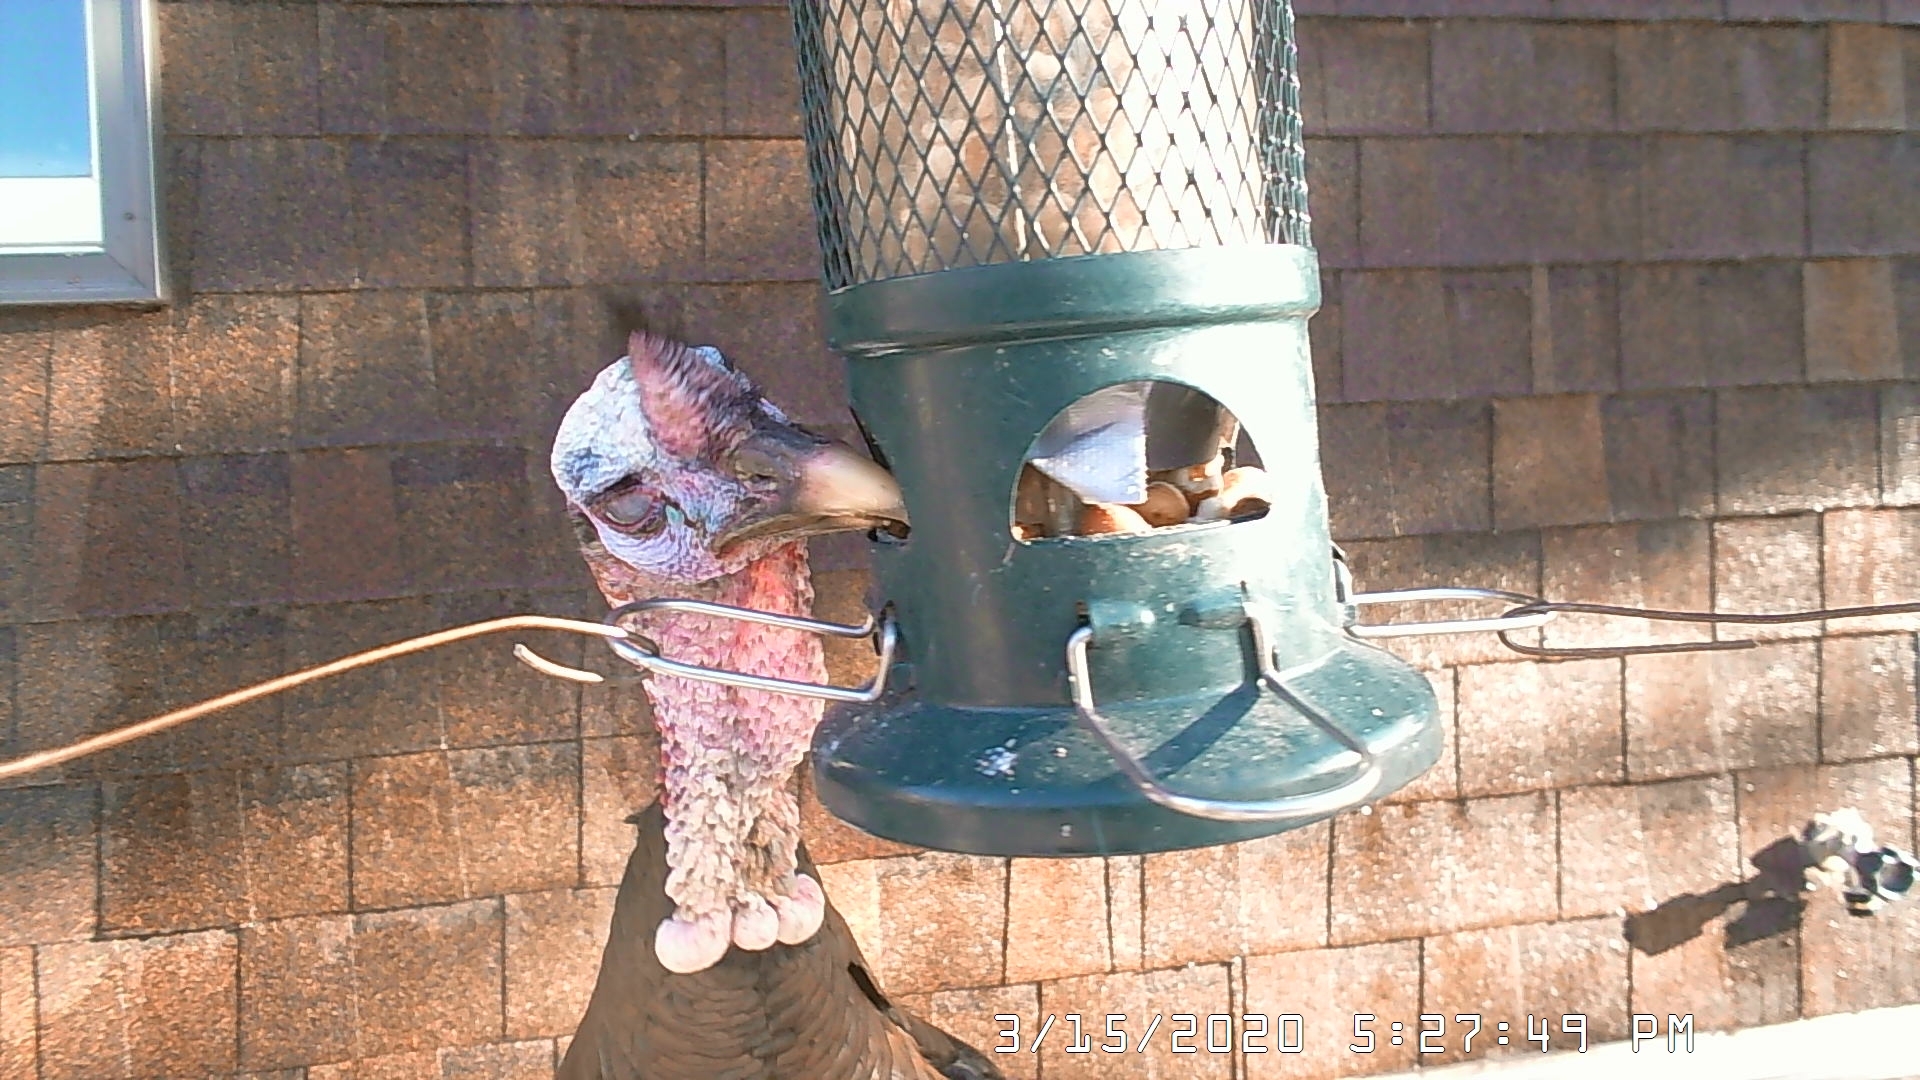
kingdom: Animalia
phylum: Chordata
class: Aves
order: Galliformes
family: Phasianidae
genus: Meleagris
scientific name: Meleagris gallopavo
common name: Wild turkey
